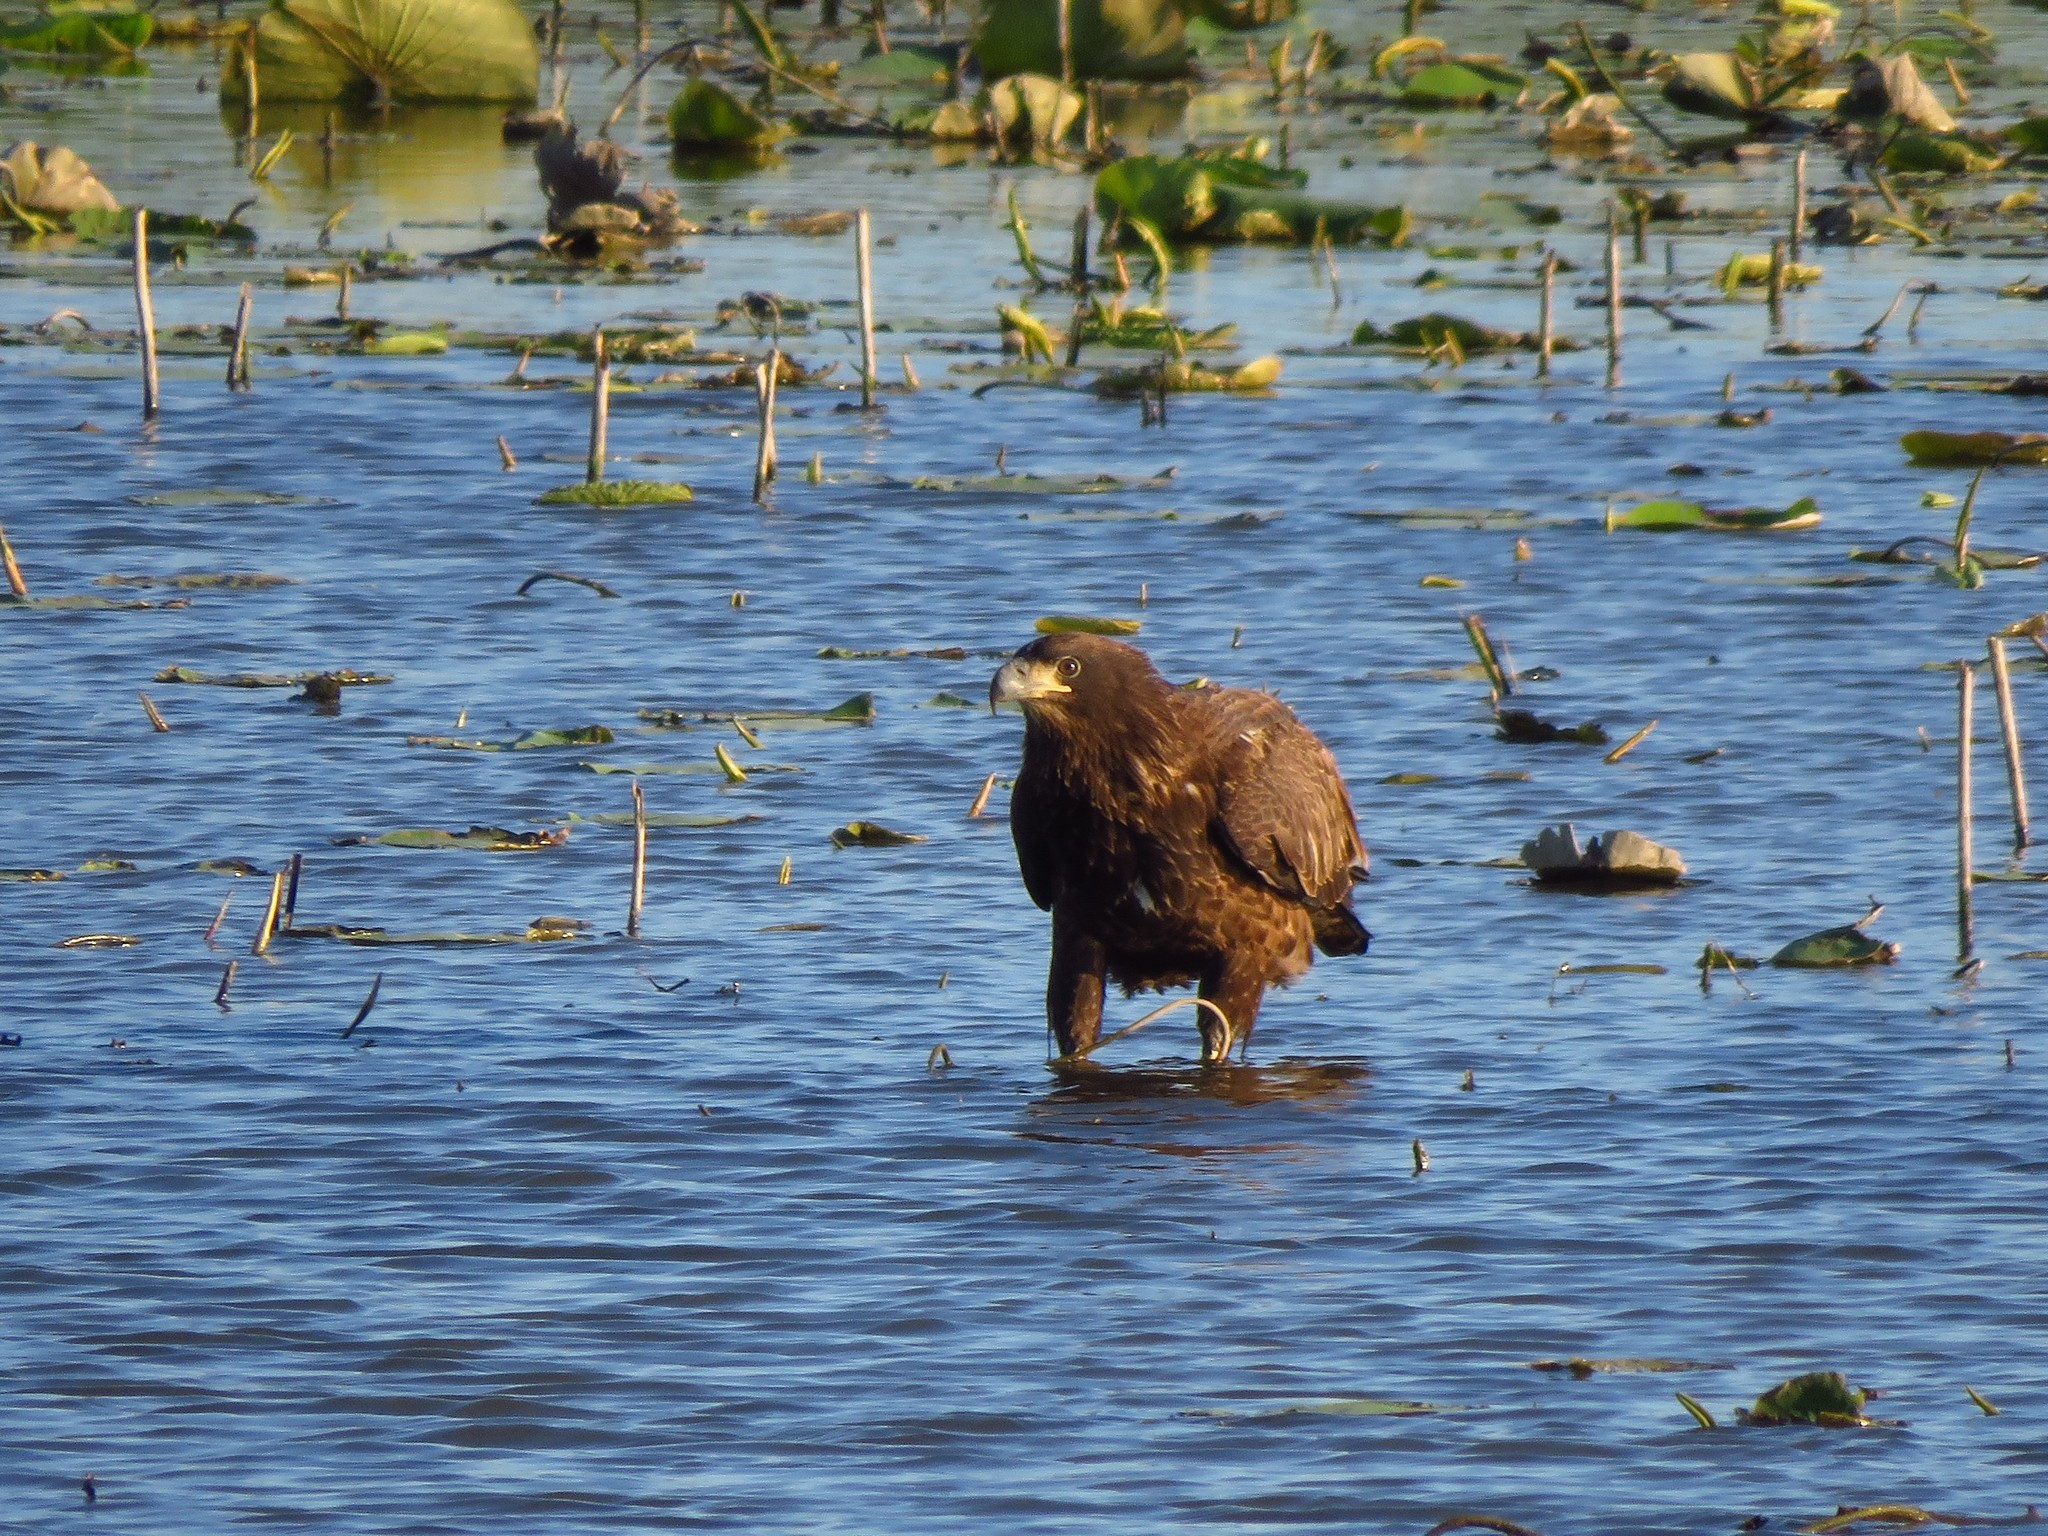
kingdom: Animalia
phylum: Chordata
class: Aves
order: Accipitriformes
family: Accipitridae
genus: Haliaeetus
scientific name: Haliaeetus leucocephalus
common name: Bald eagle
